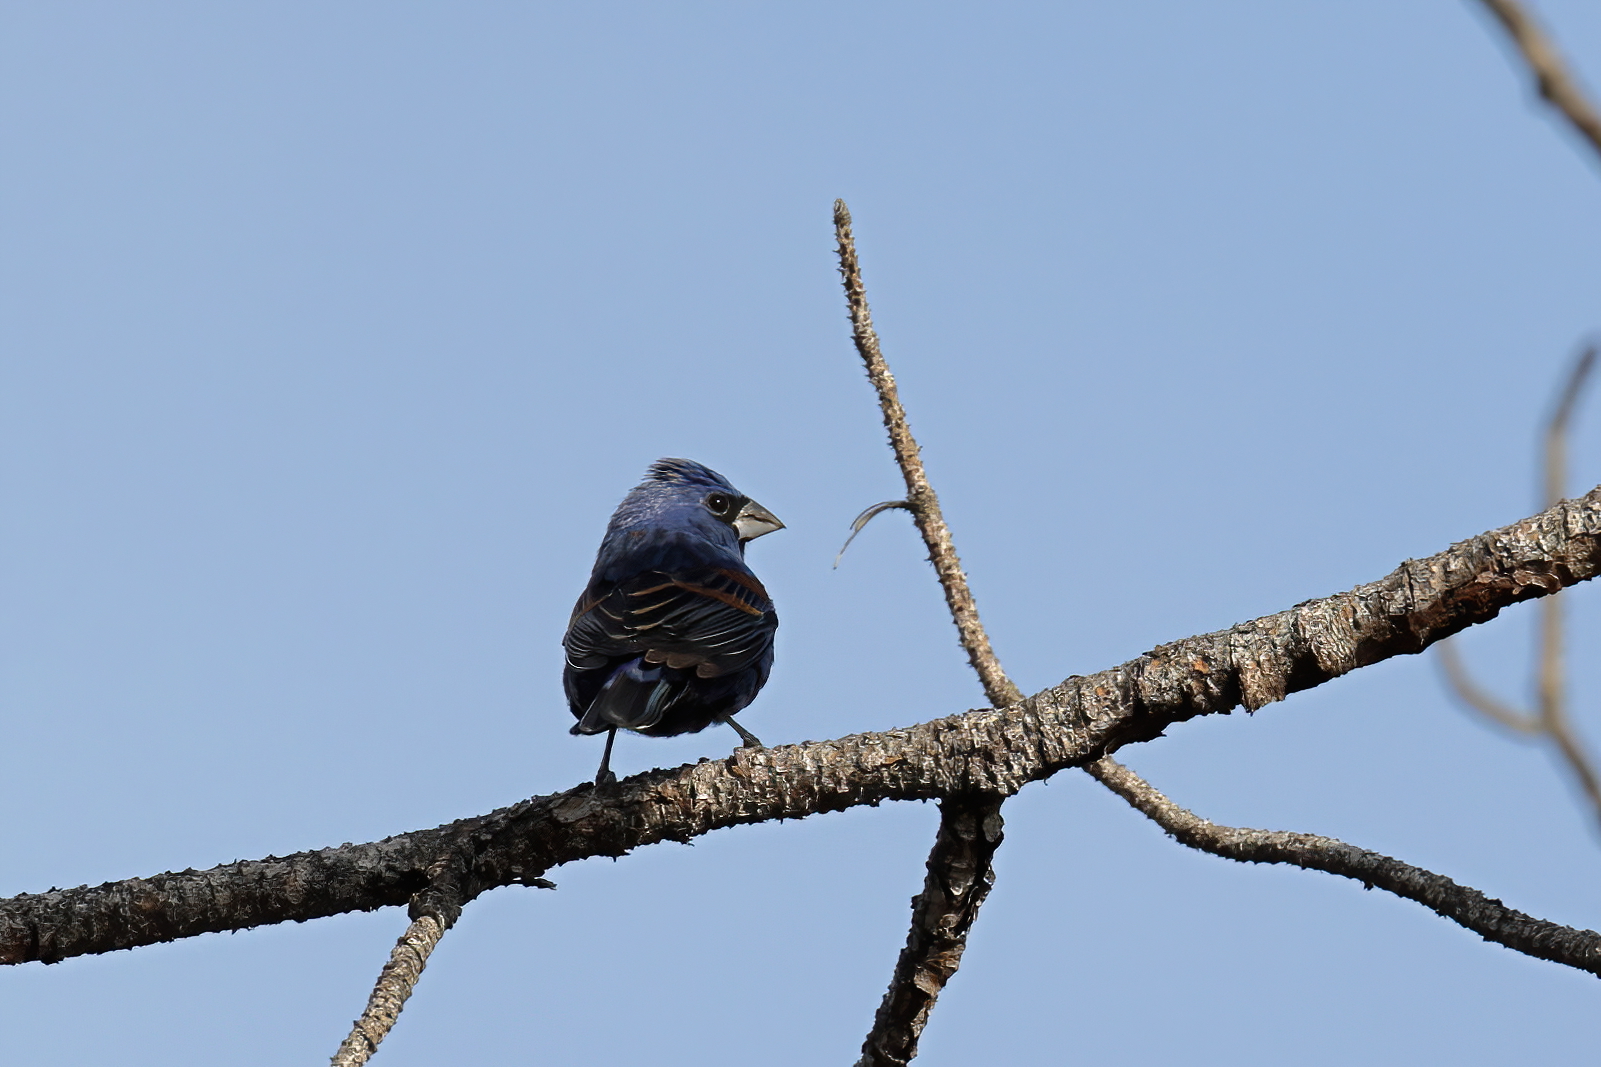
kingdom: Animalia
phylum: Chordata
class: Aves
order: Passeriformes
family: Cardinalidae
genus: Passerina
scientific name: Passerina caerulea
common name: Blue grosbeak
